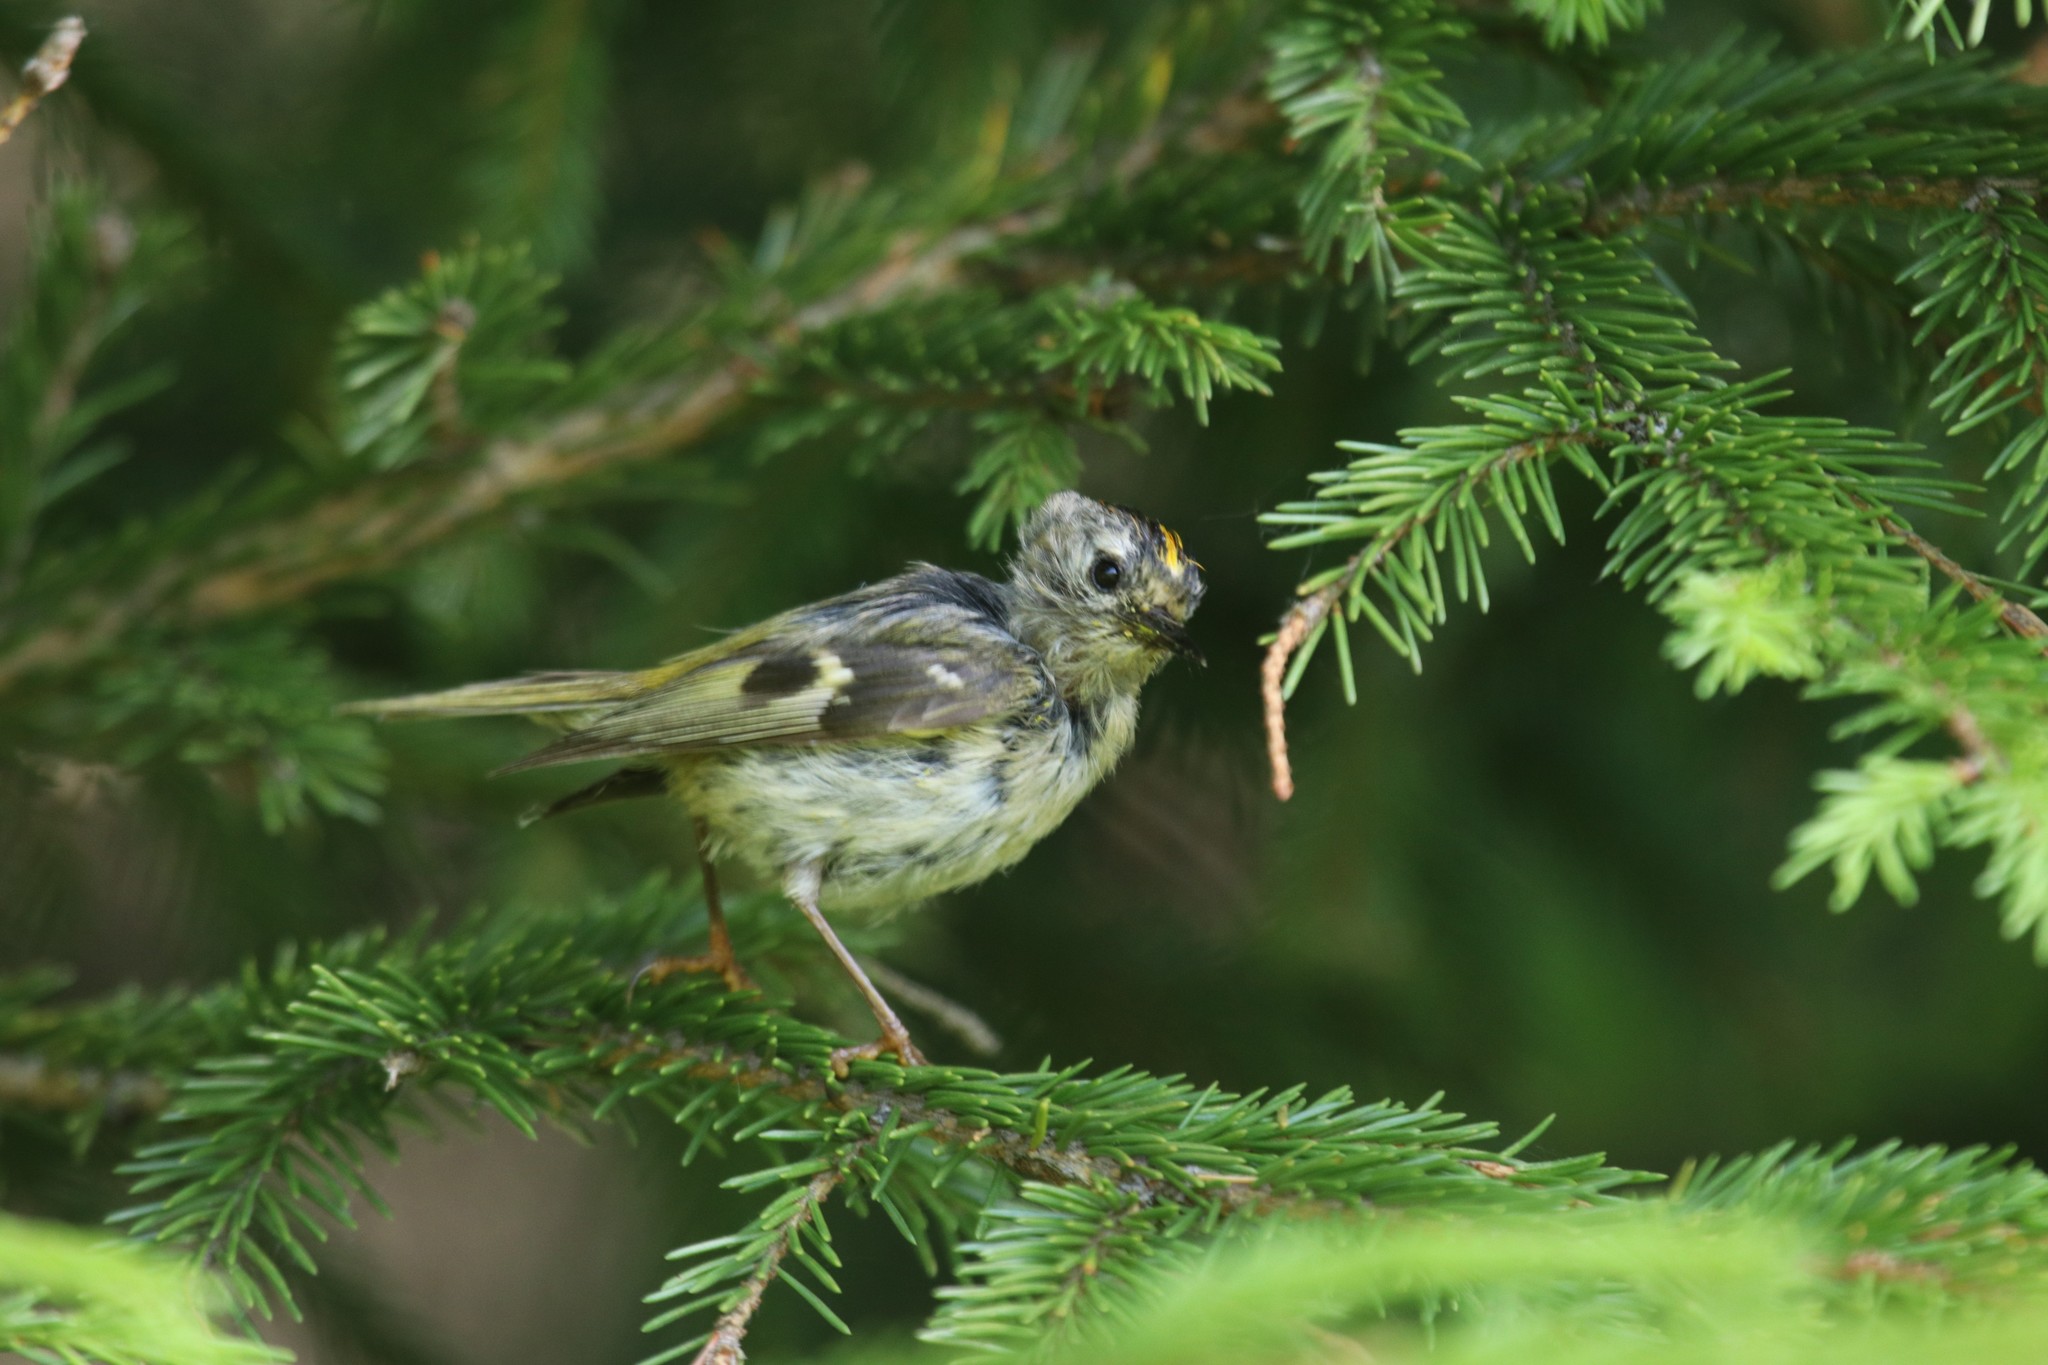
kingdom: Animalia
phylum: Chordata
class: Aves
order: Passeriformes
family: Regulidae
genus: Regulus
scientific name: Regulus regulus
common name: Goldcrest
